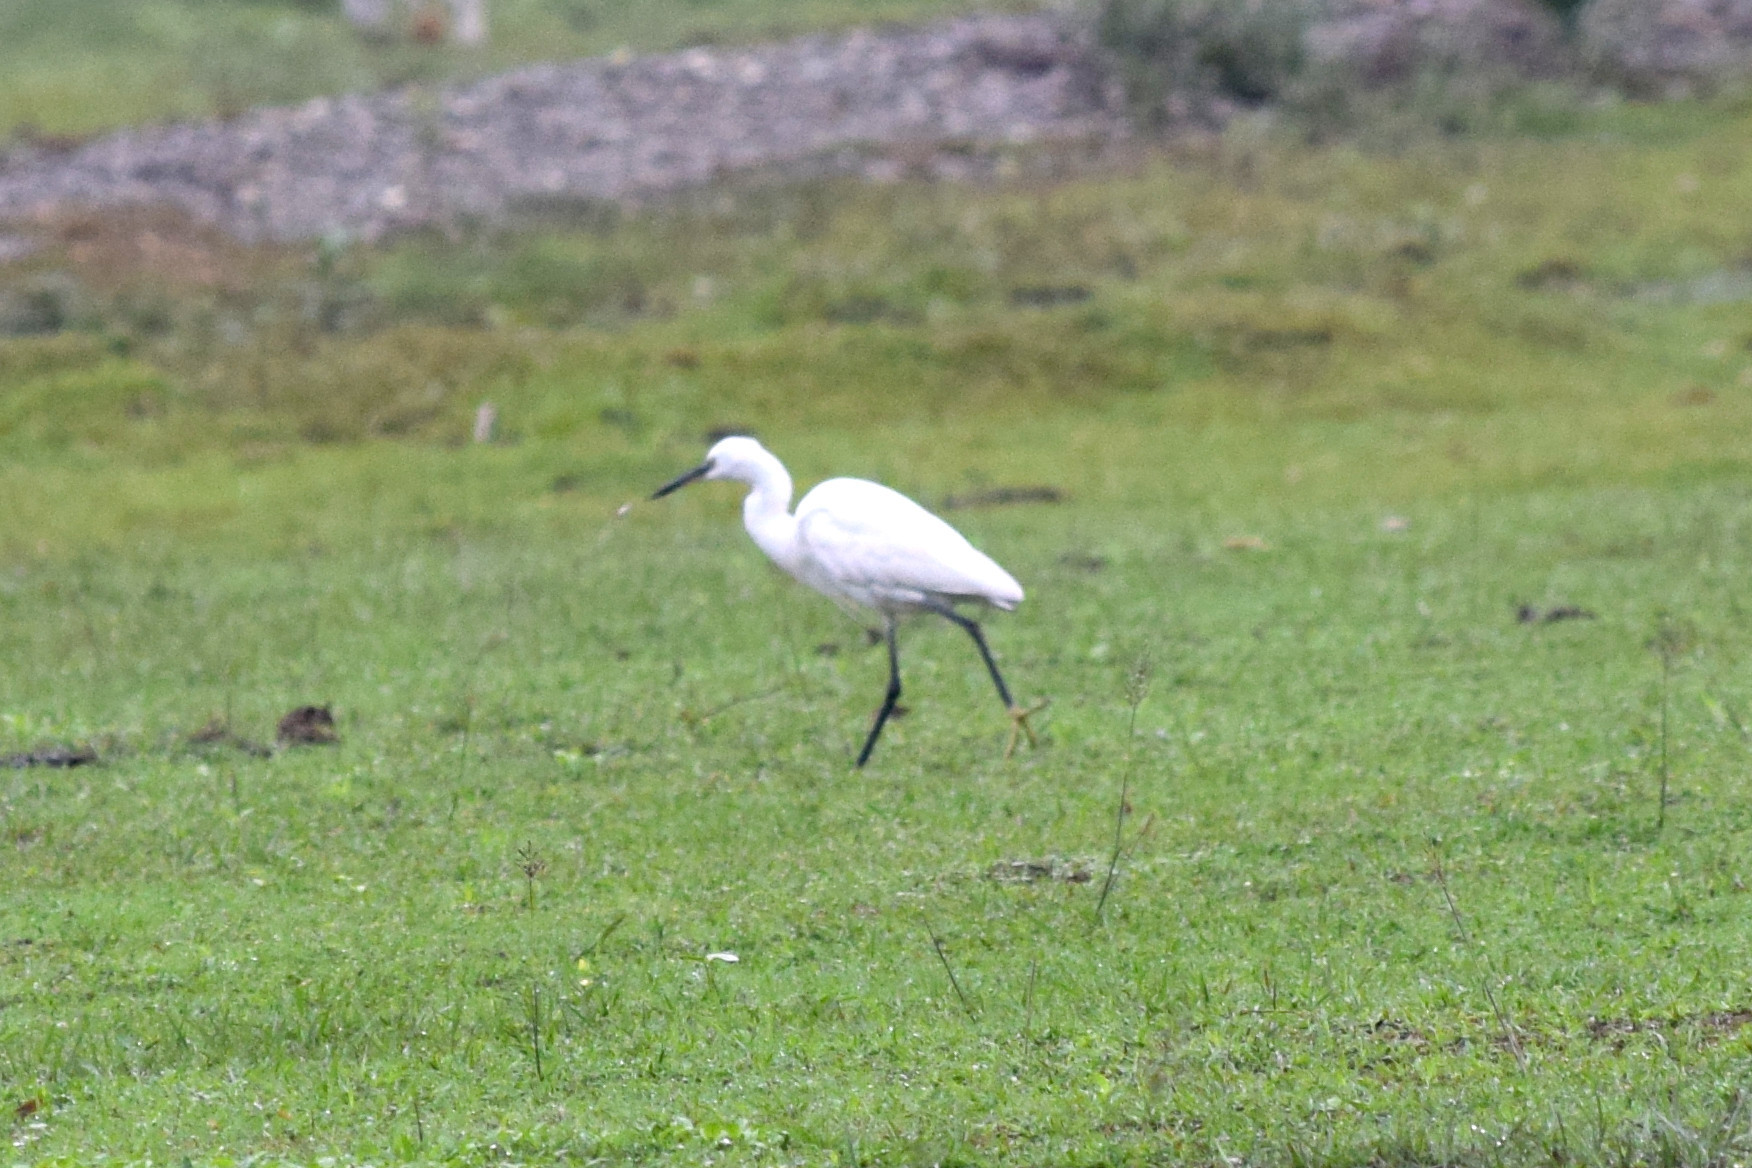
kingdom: Animalia
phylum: Chordata
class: Aves
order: Pelecaniformes
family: Ardeidae
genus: Egretta
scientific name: Egretta garzetta
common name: Little egret
